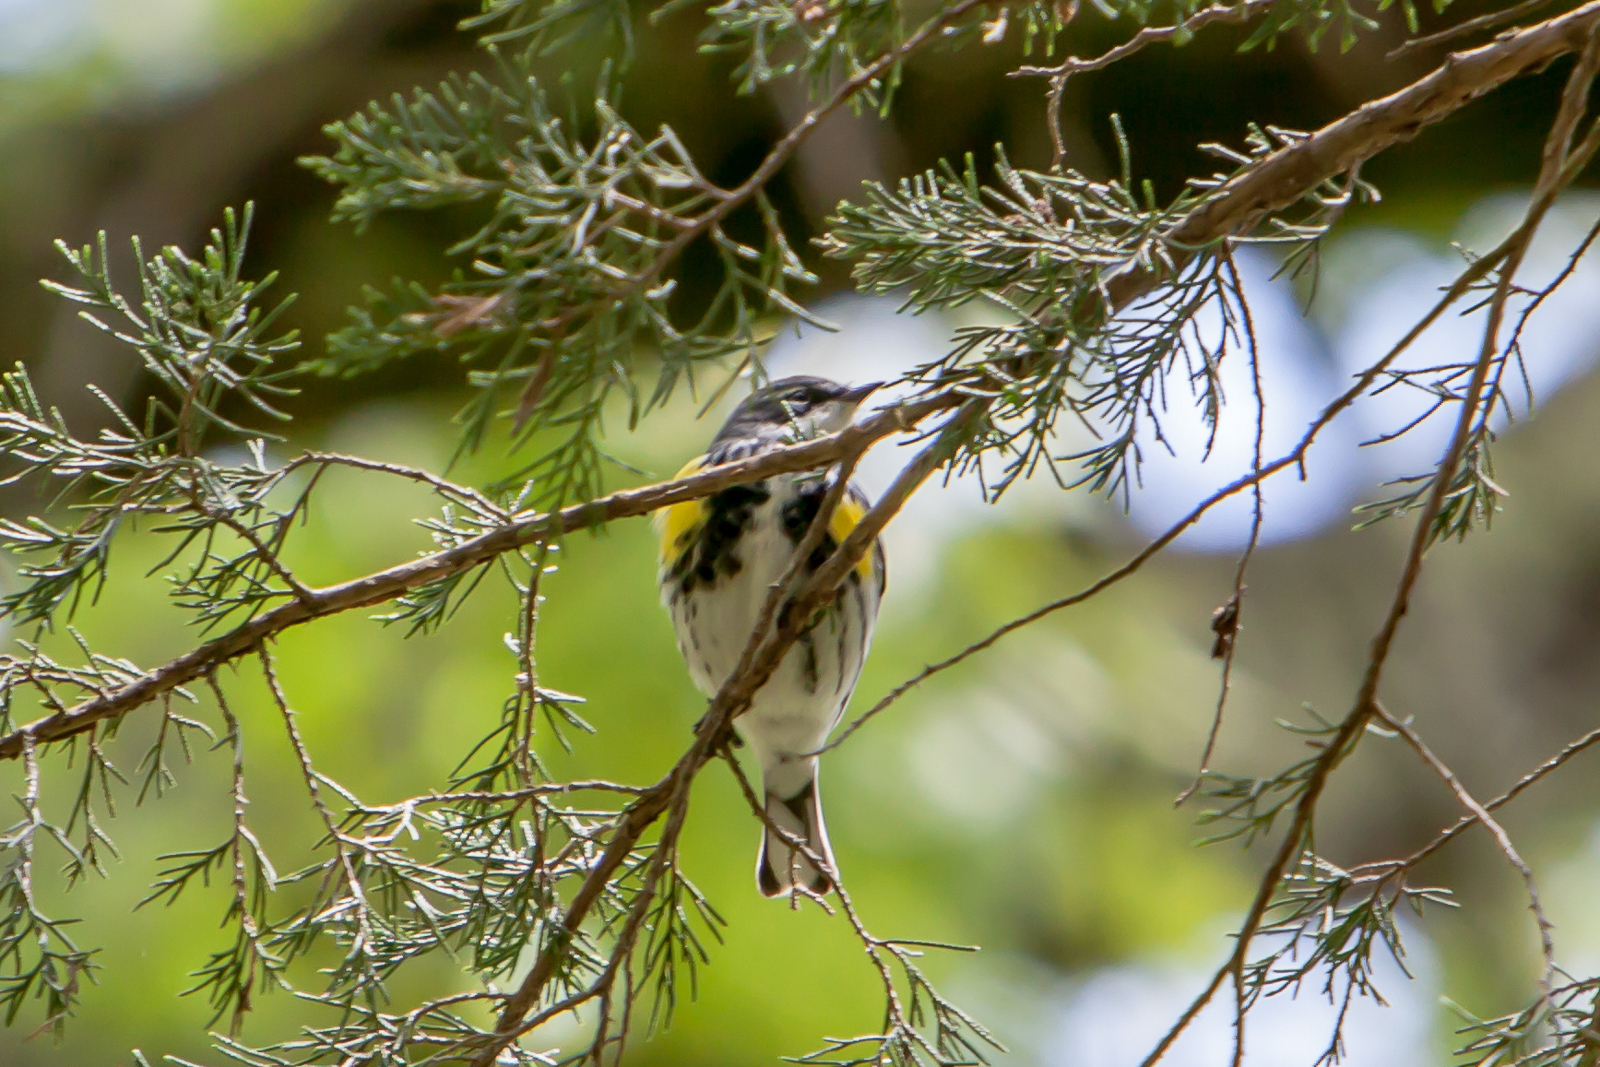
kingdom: Animalia
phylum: Chordata
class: Aves
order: Passeriformes
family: Parulidae
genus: Setophaga
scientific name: Setophaga coronata
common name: Myrtle warbler
